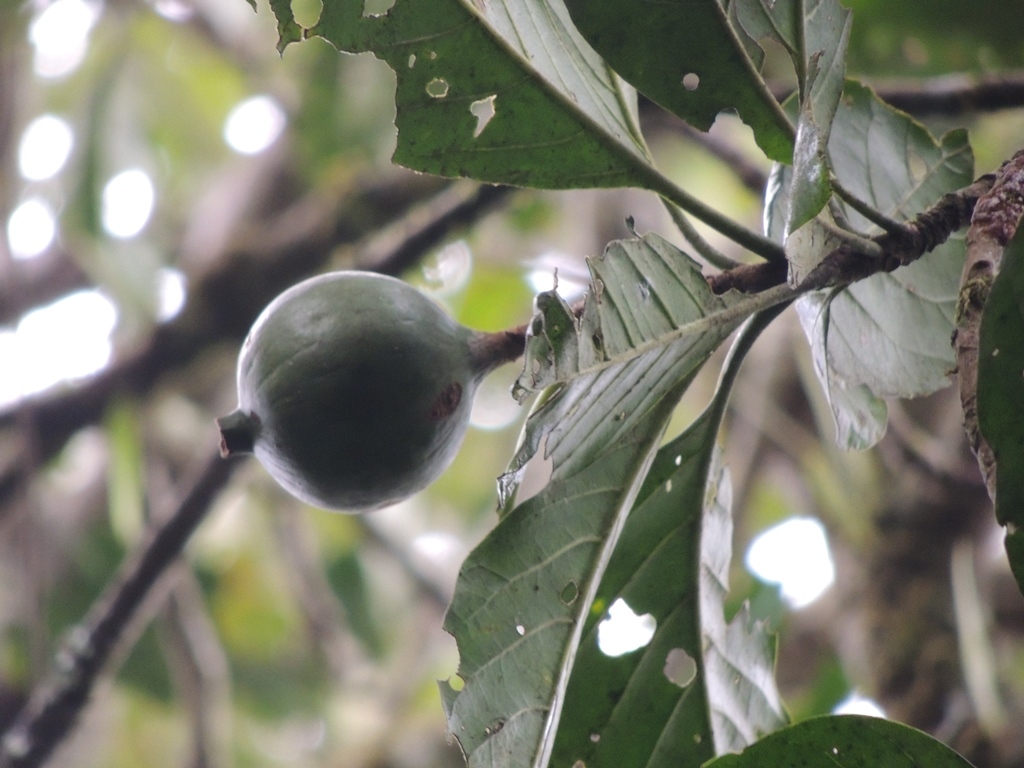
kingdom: Plantae
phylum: Tracheophyta
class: Magnoliopsida
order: Gentianales
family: Rubiaceae
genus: Randia
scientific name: Randia matudae
